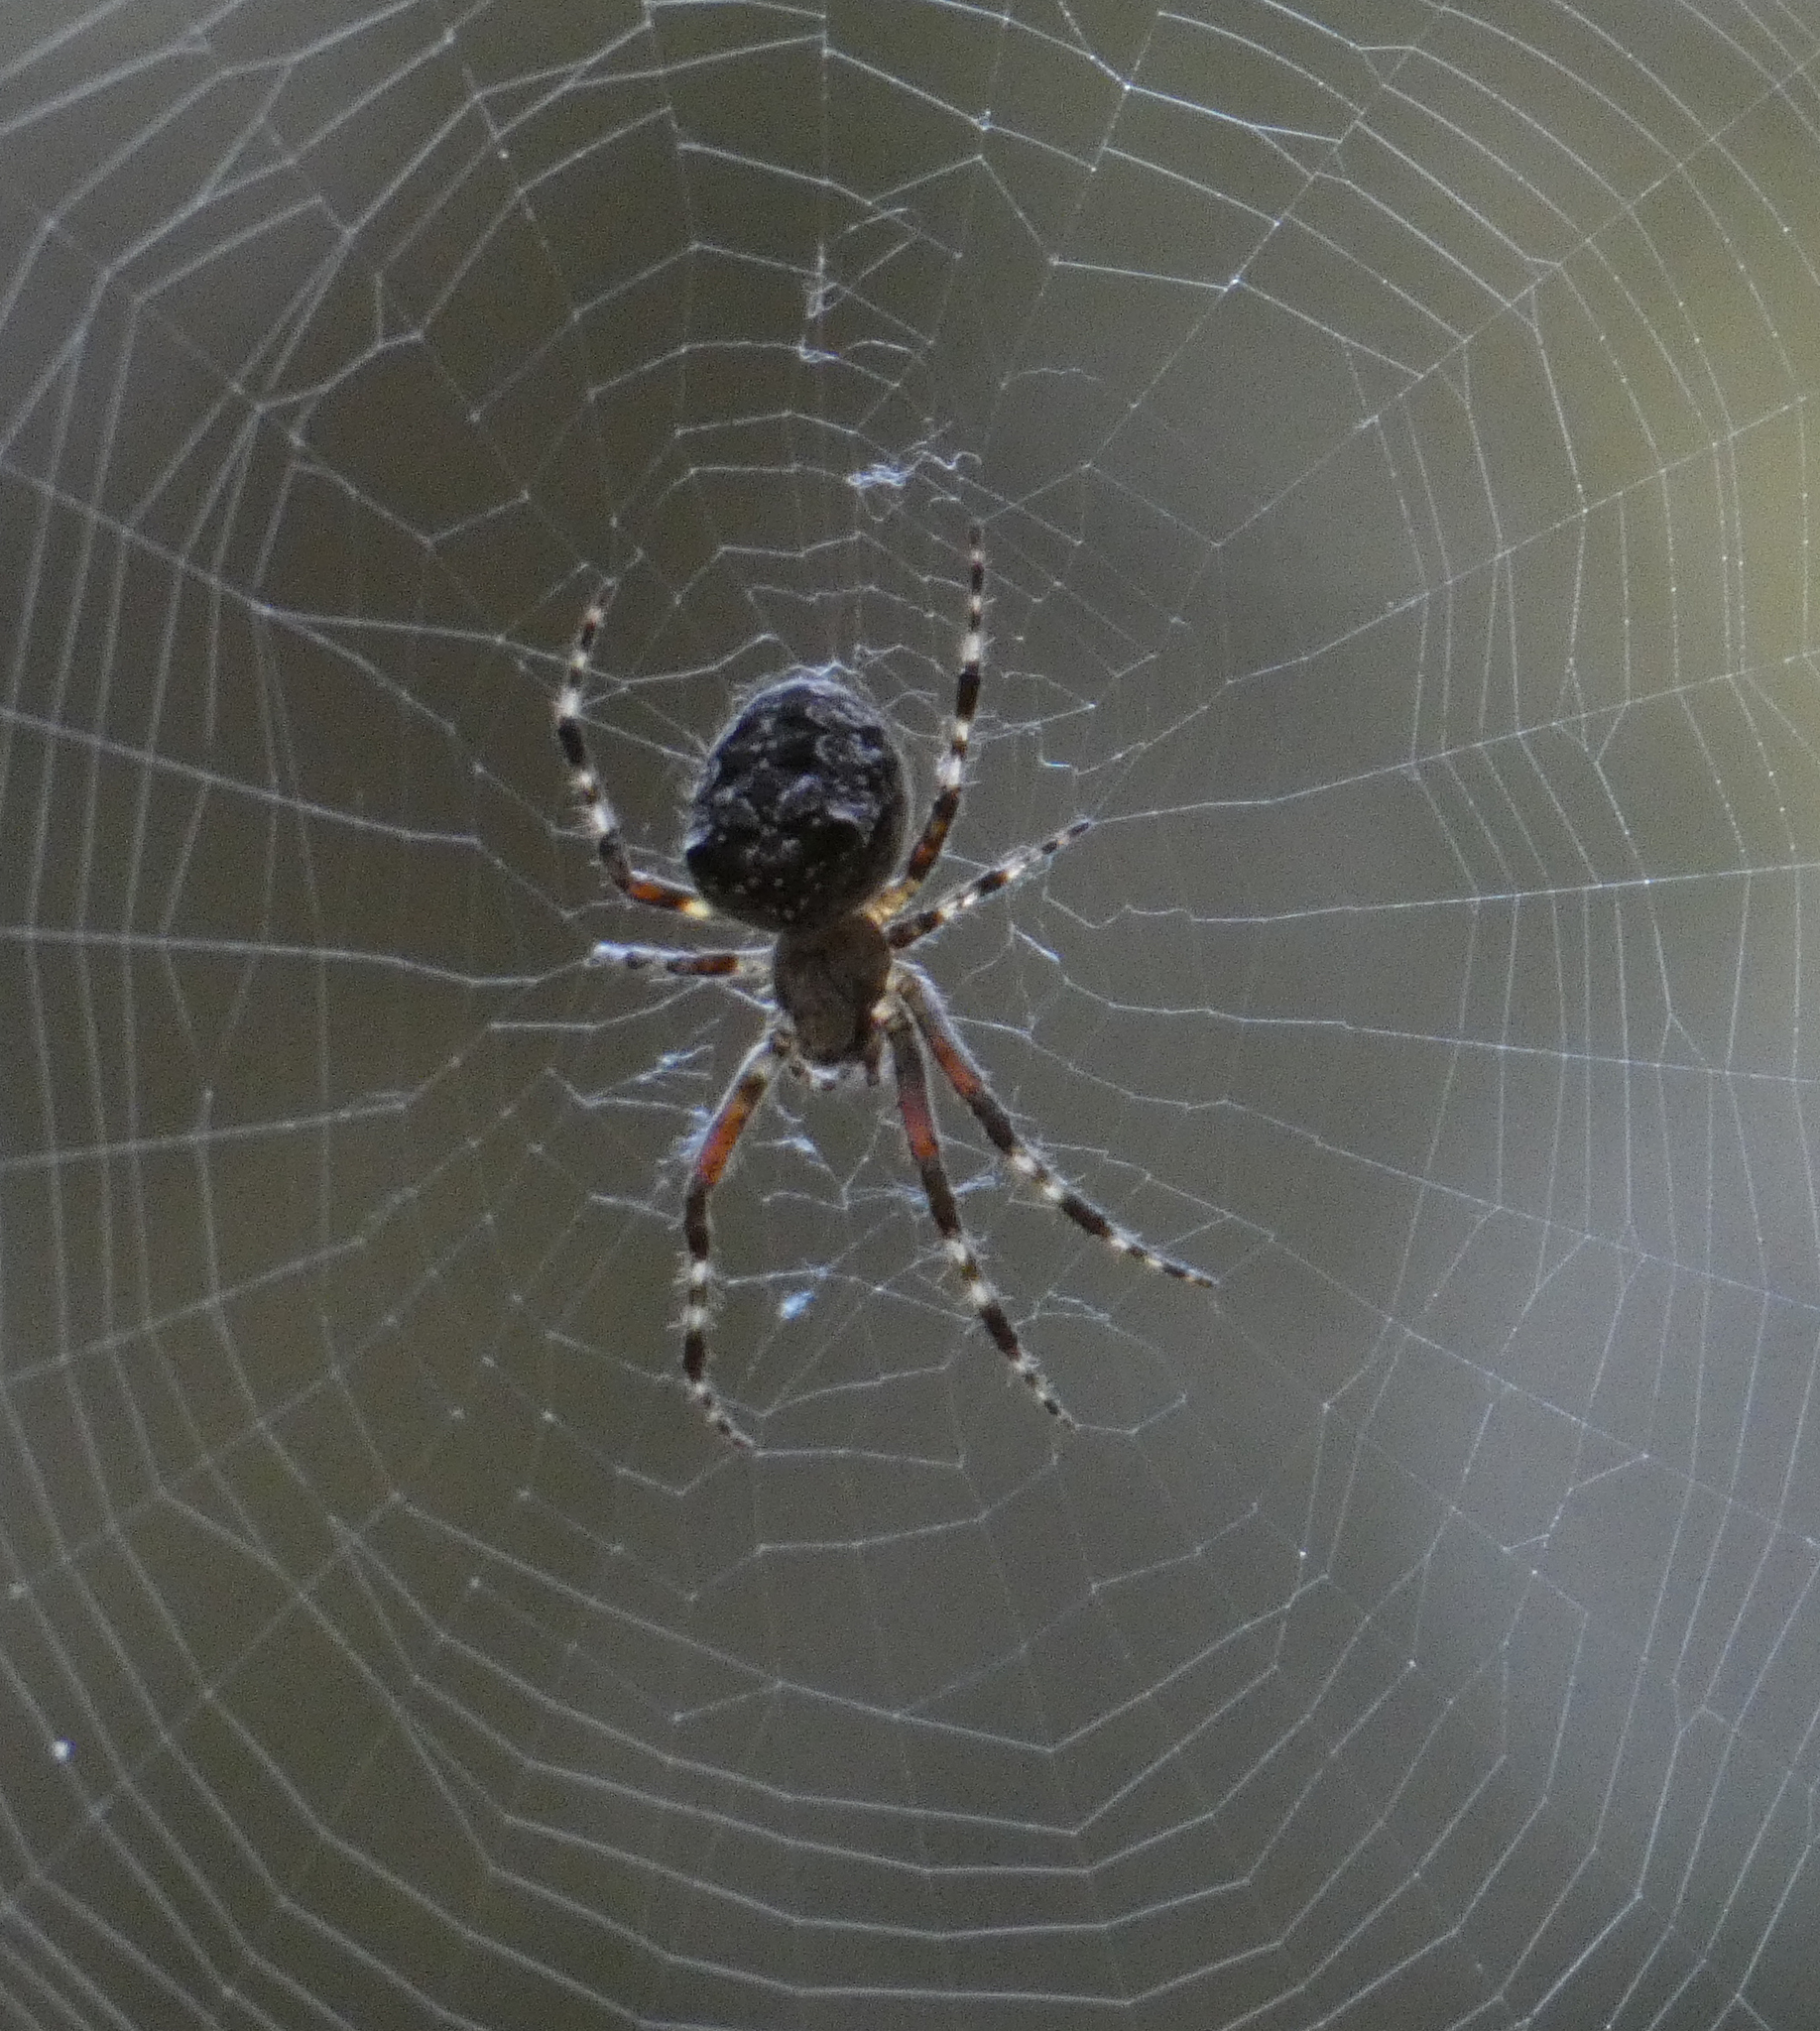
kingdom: Animalia
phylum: Arthropoda
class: Arachnida
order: Araneae
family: Araneidae
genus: Araneus
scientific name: Araneus nordmanni
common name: Nordmann's orbweaver
